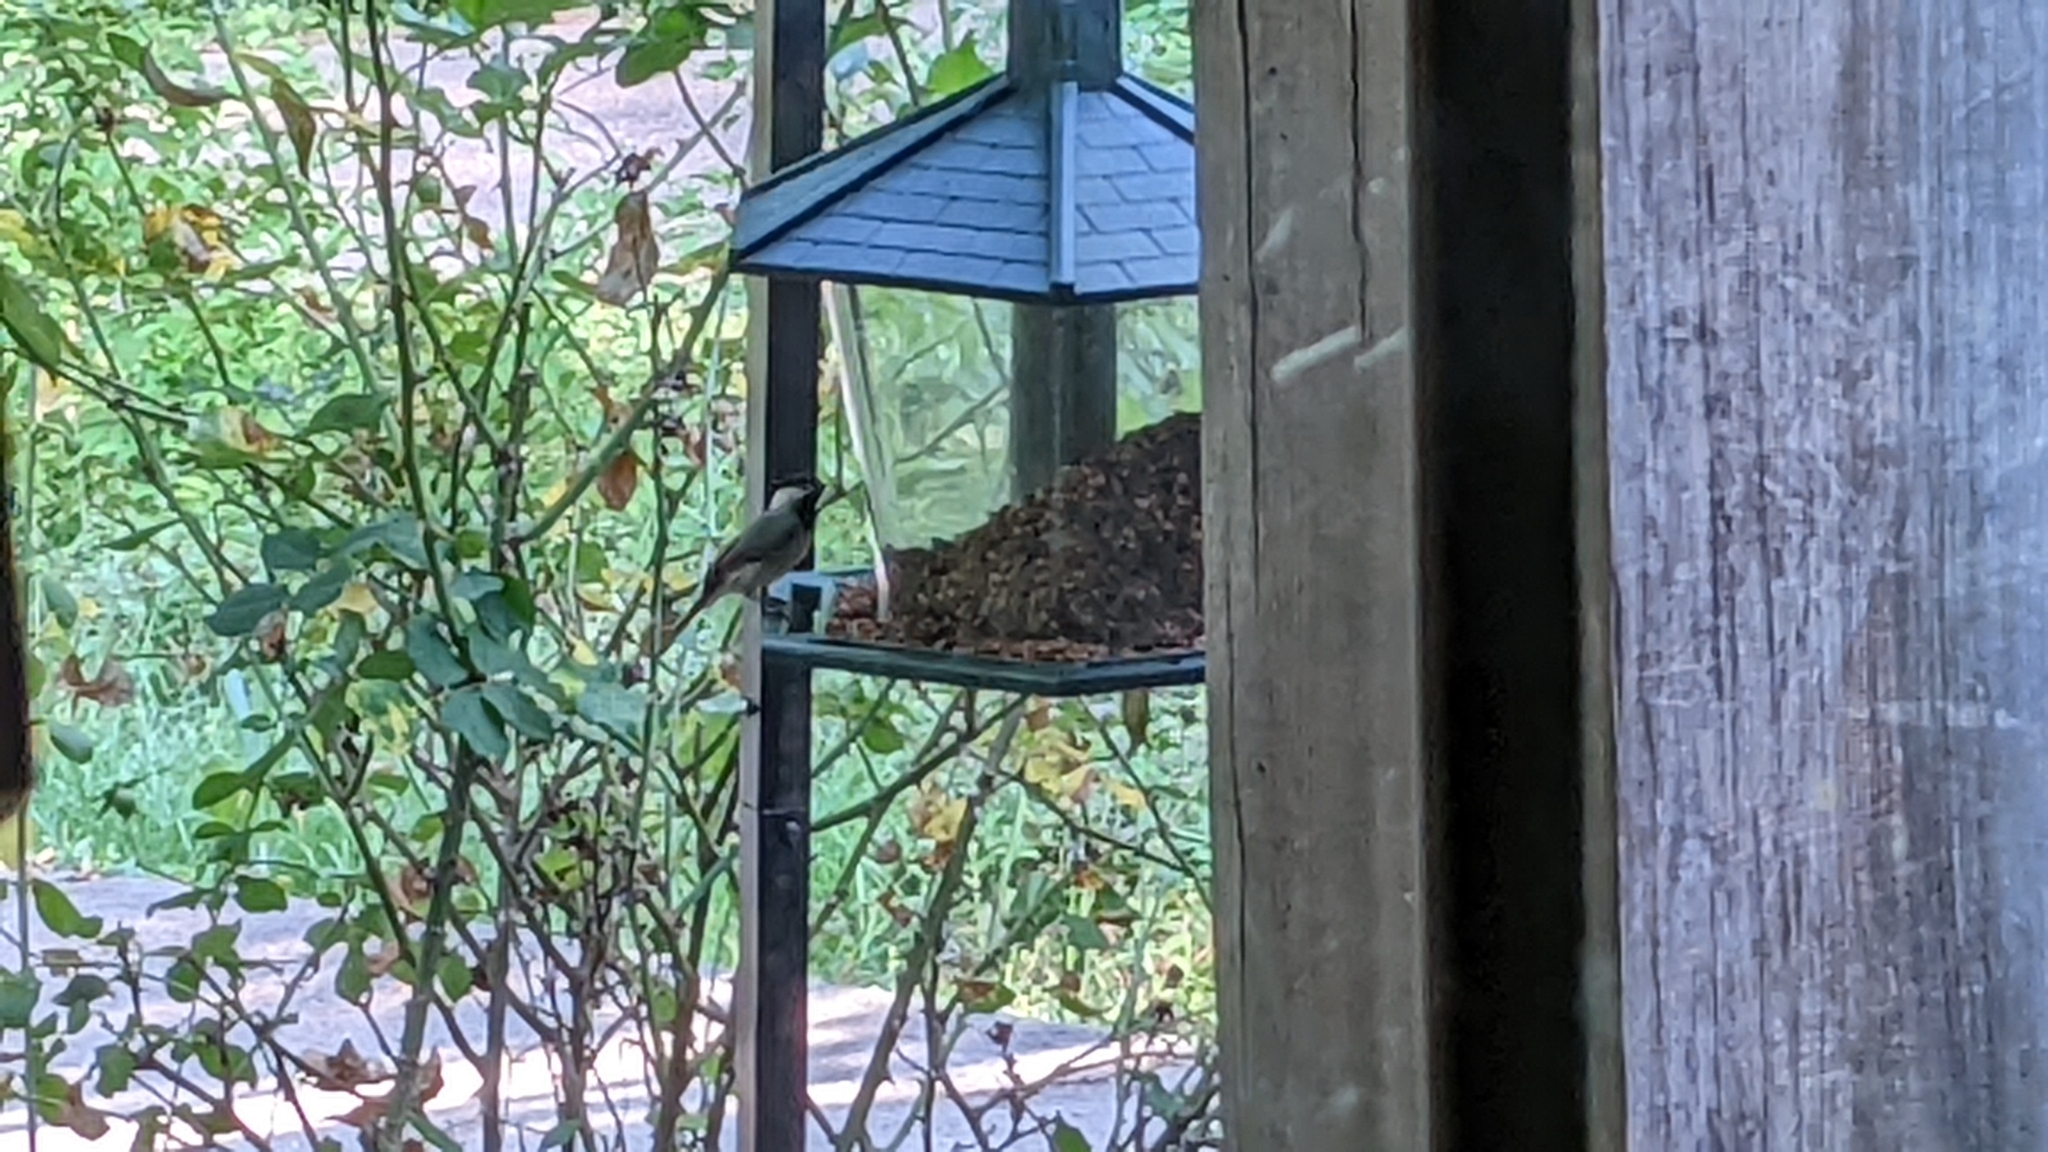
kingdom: Animalia
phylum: Chordata
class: Aves
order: Passeriformes
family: Paridae
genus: Poecile
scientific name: Poecile carolinensis
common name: Carolina chickadee
